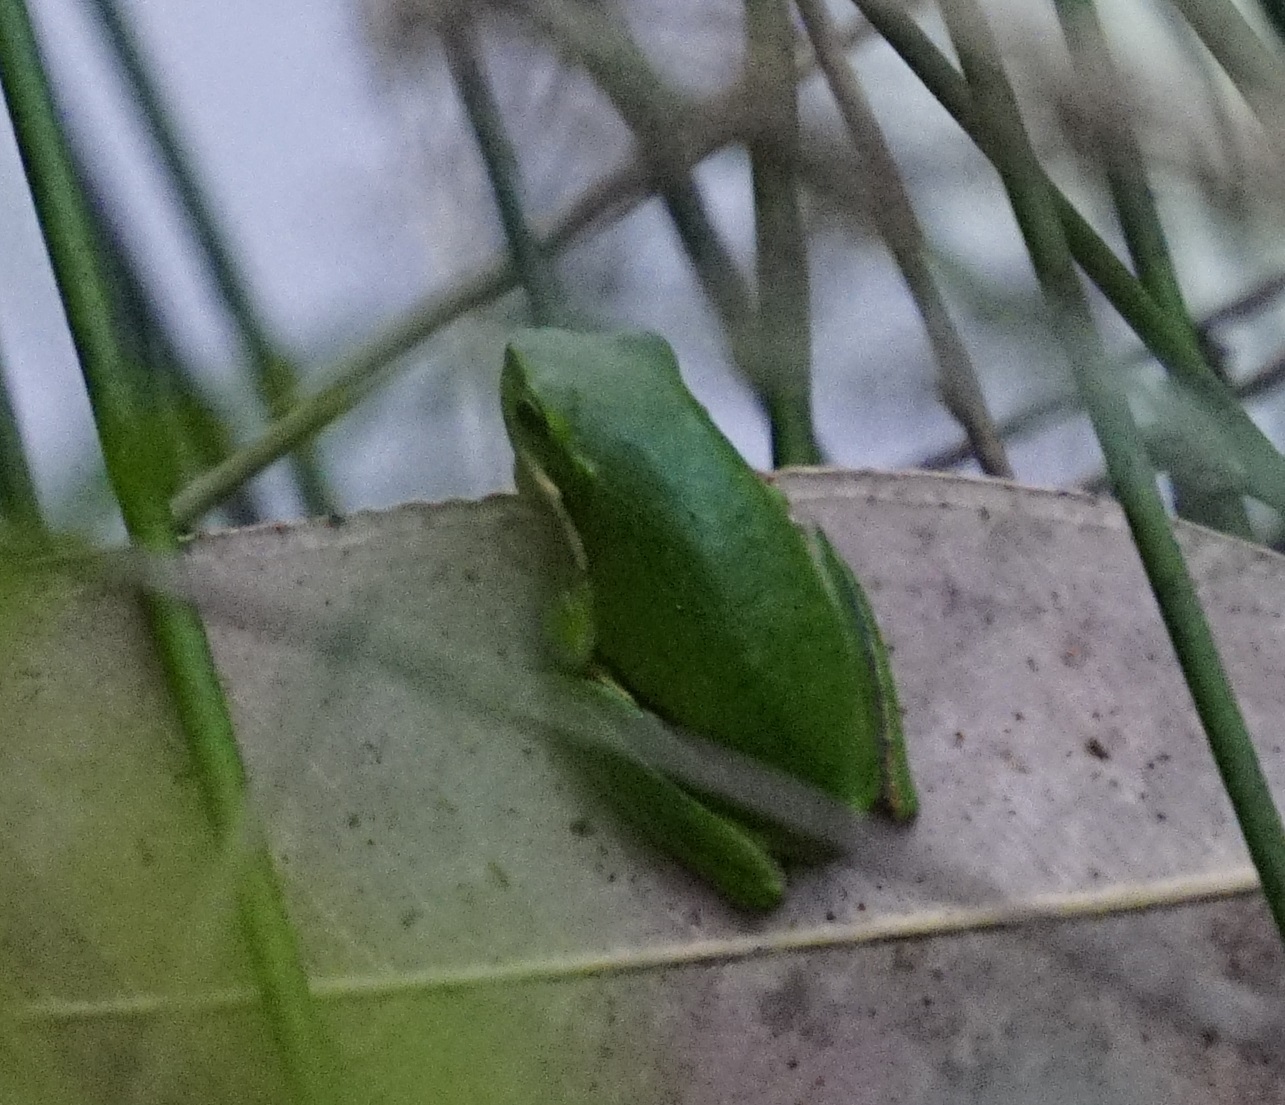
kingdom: Animalia
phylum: Chordata
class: Amphibia
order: Anura
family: Pelodryadidae
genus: Litoria
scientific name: Litoria fallax
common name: Eastern dwarf treefrog
